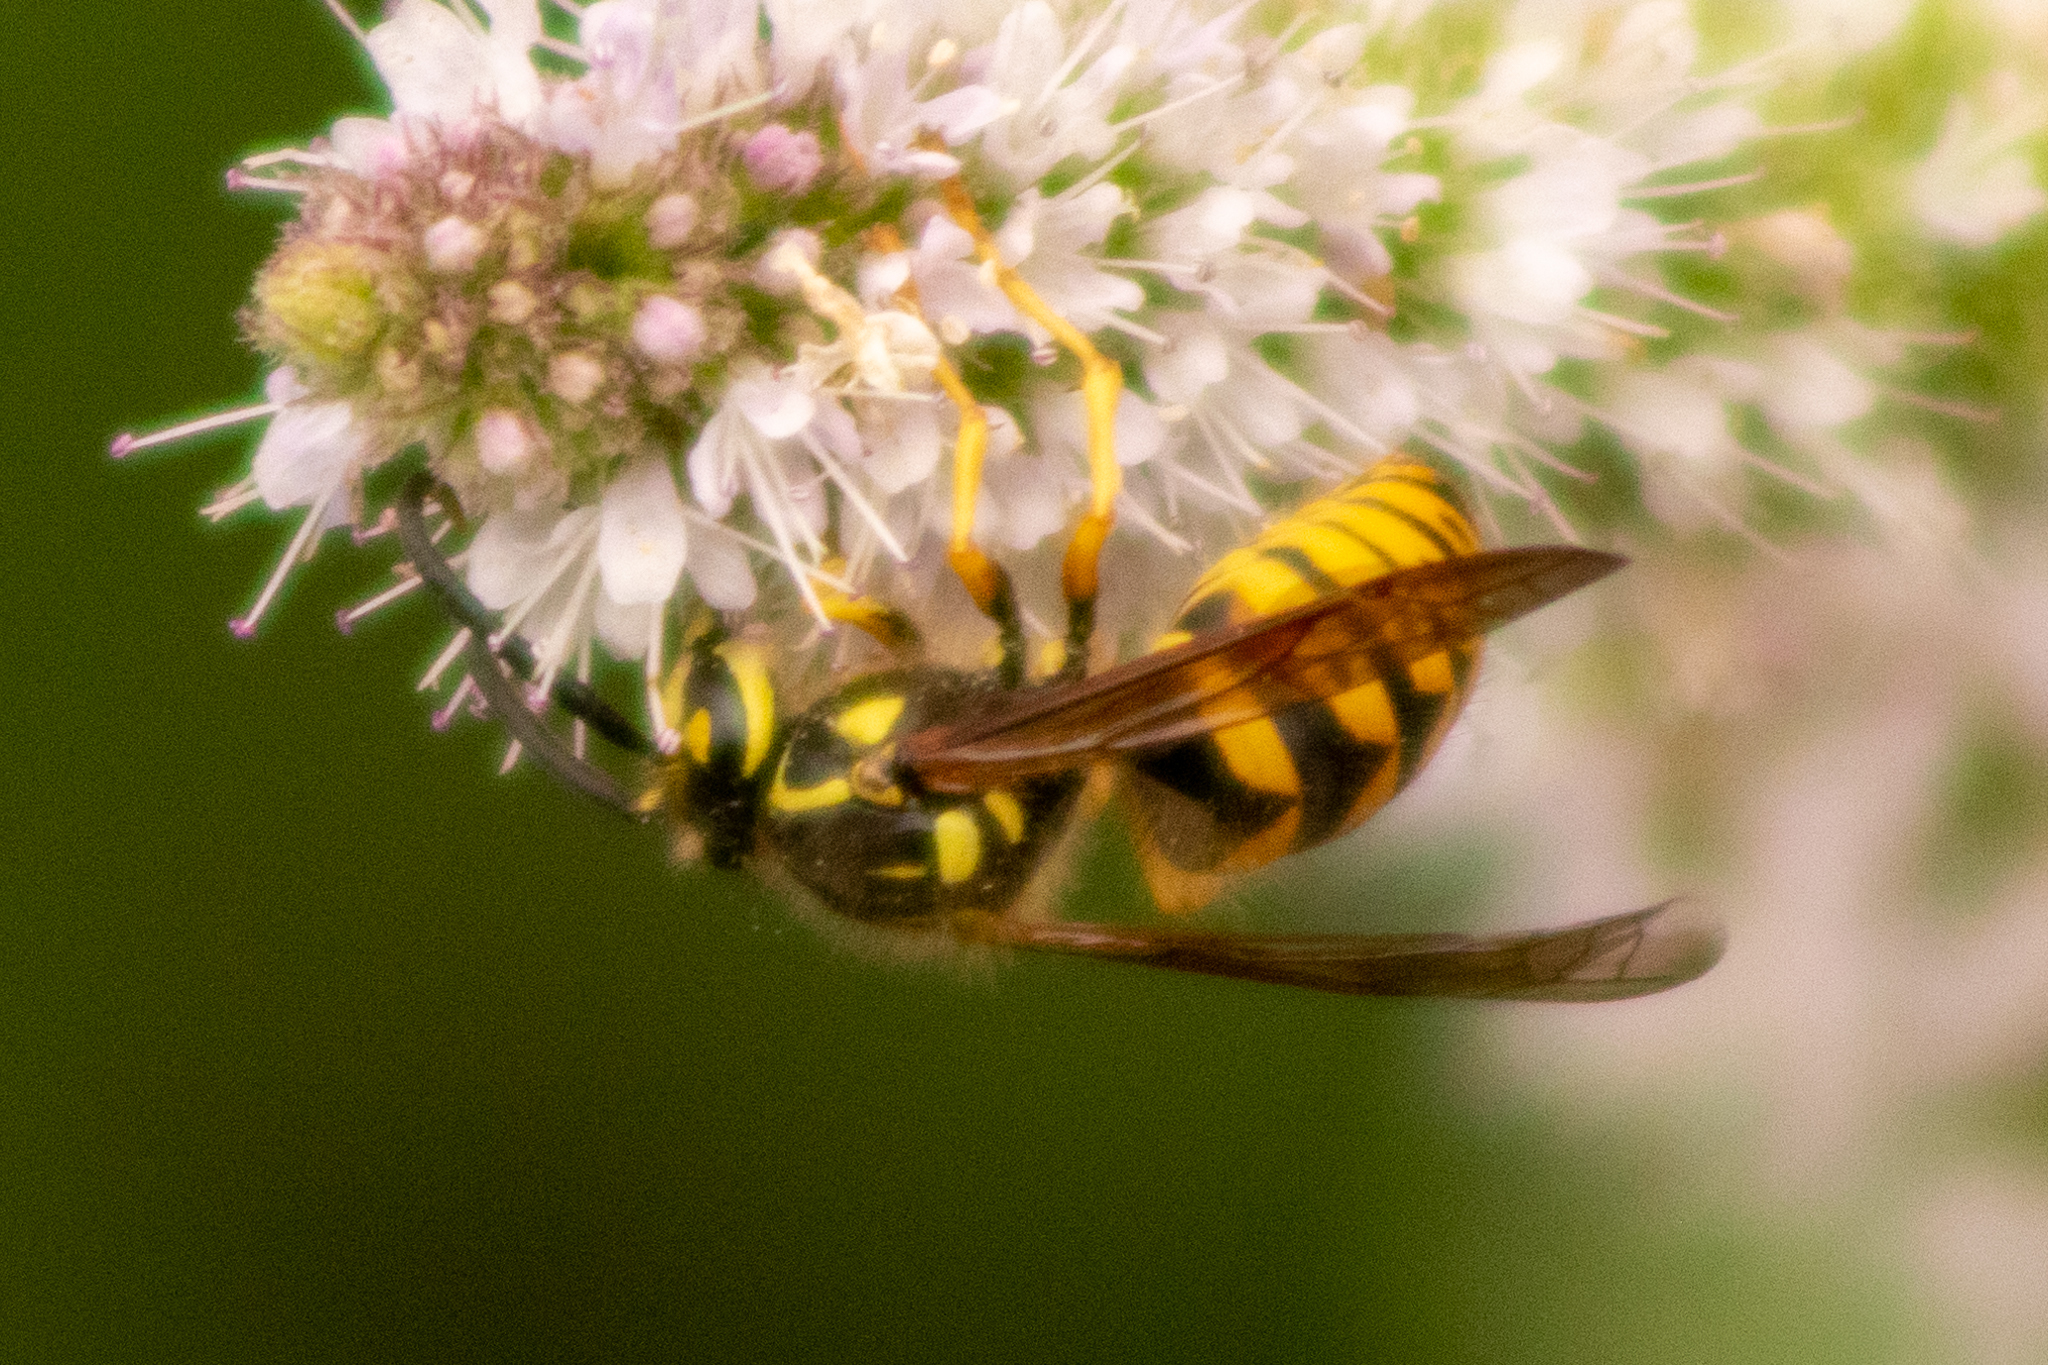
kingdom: Animalia
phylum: Arthropoda
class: Insecta
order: Hymenoptera
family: Vespidae
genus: Dolichovespula
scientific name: Dolichovespula arenaria
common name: Aerial yellowjacket
